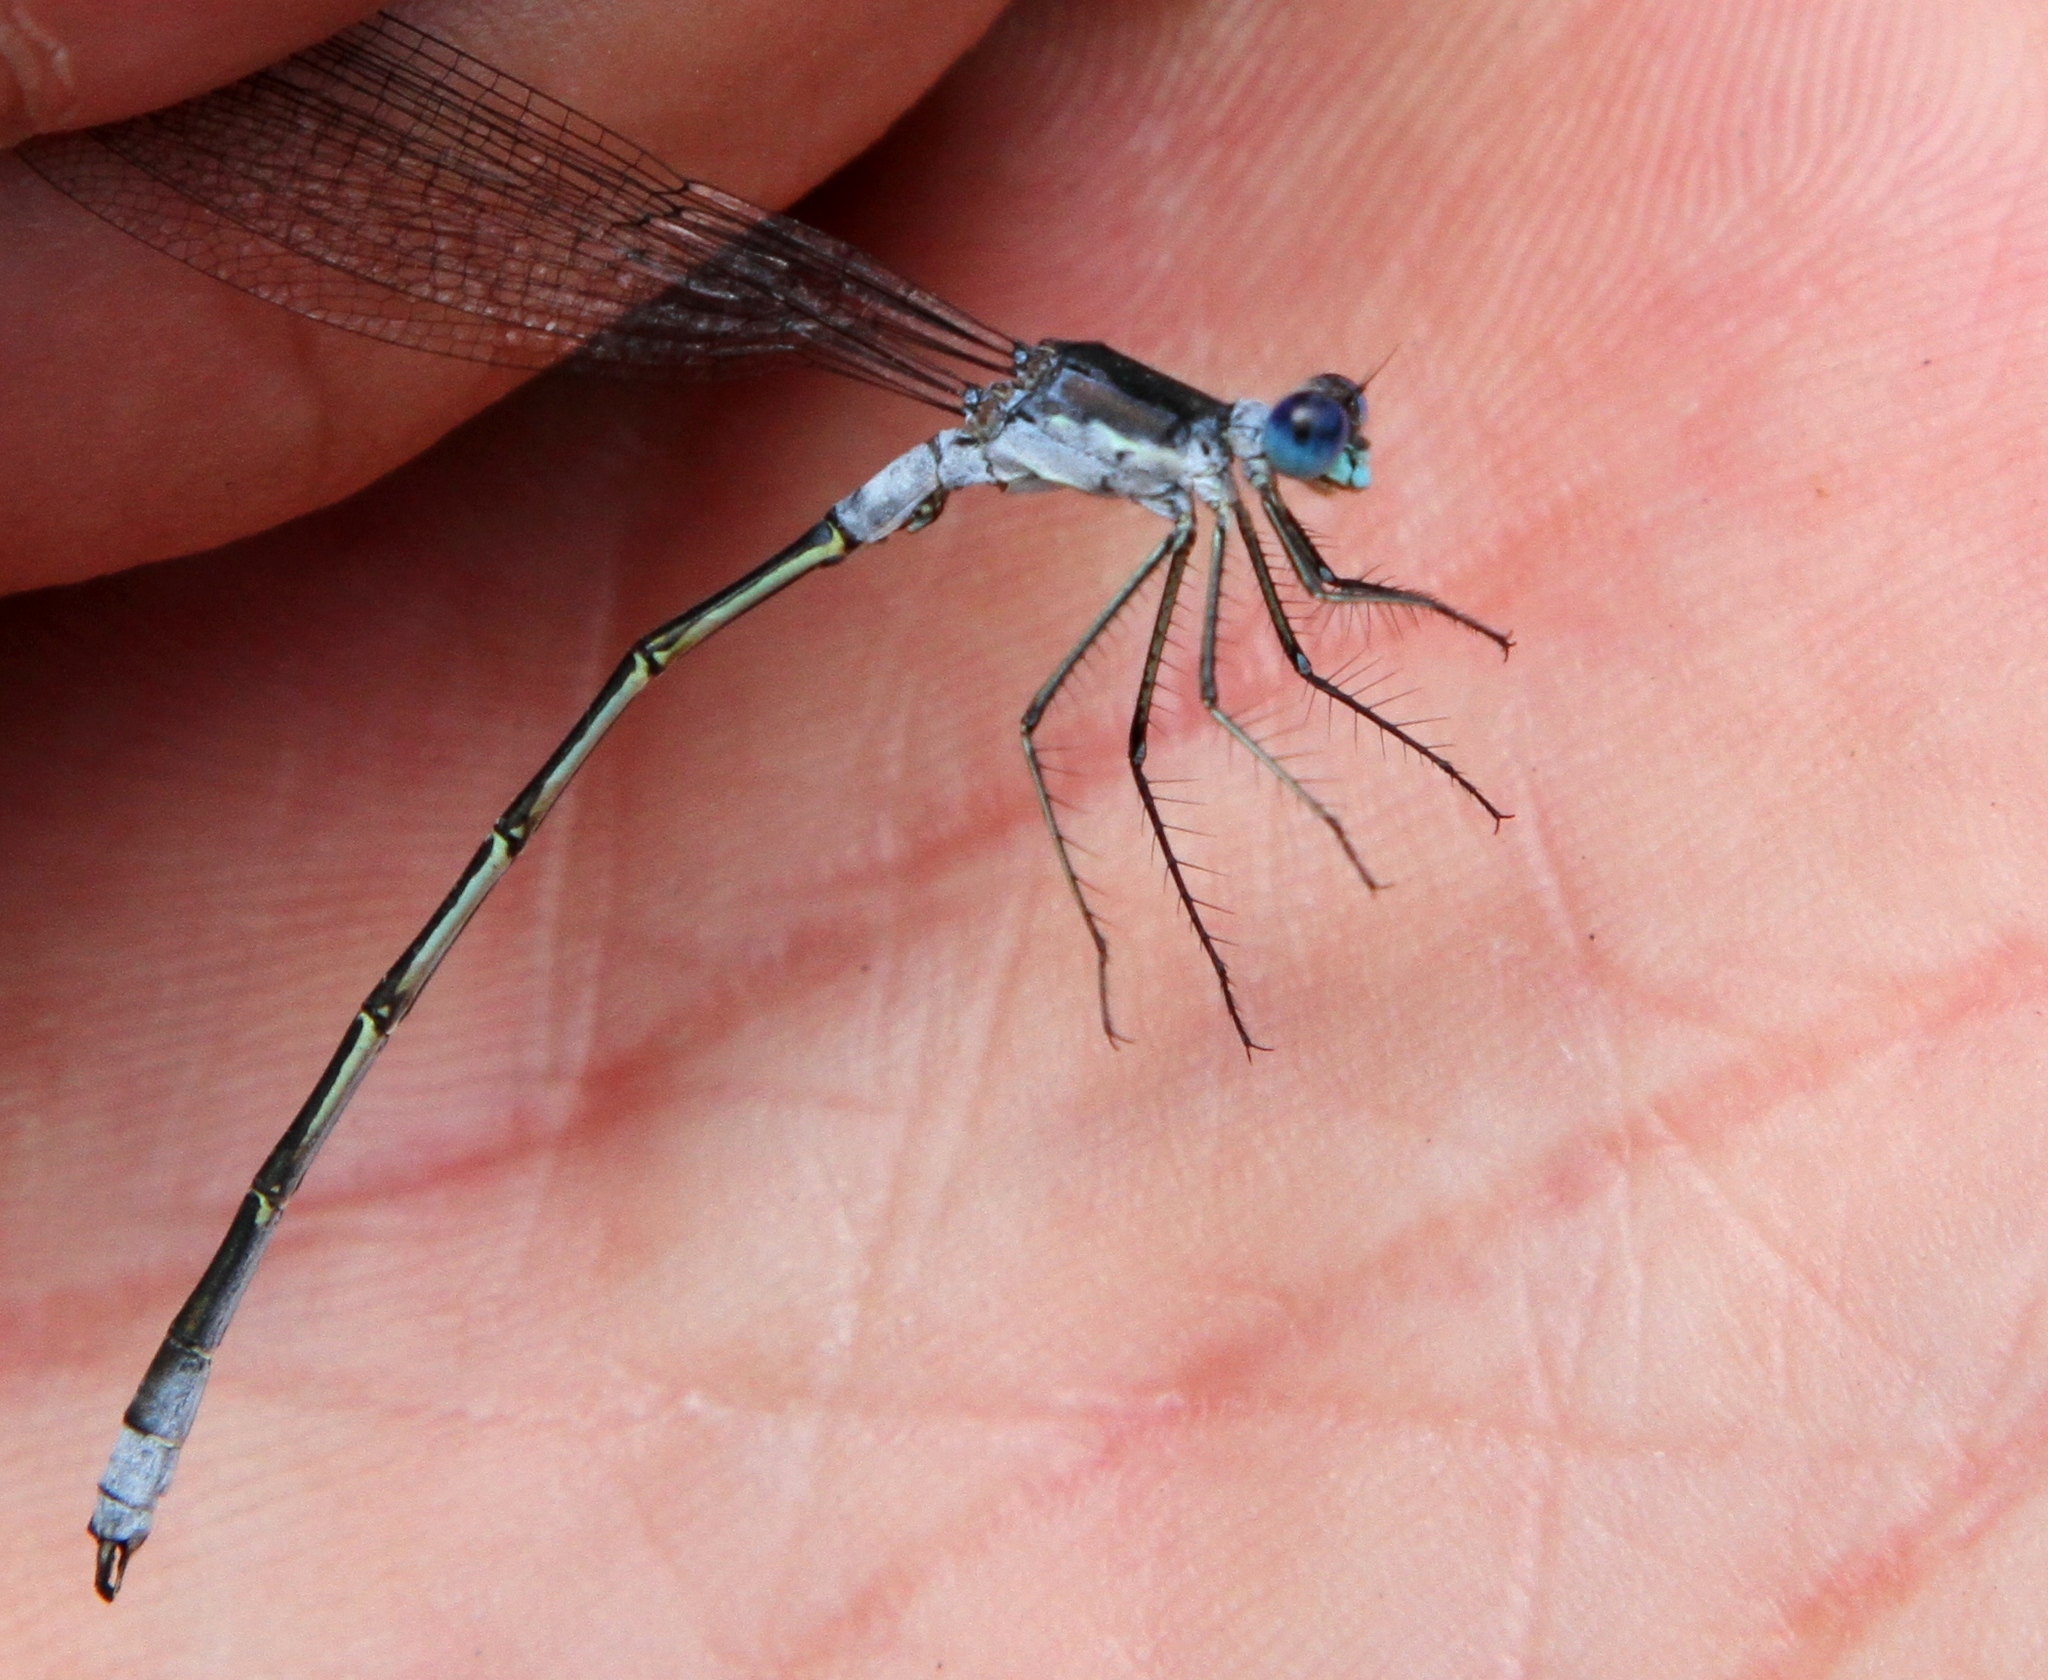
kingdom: Animalia
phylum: Arthropoda
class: Insecta
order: Odonata
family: Lestidae
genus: Lestes
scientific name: Lestes forcipatus
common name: Sweetflag spreadwing
